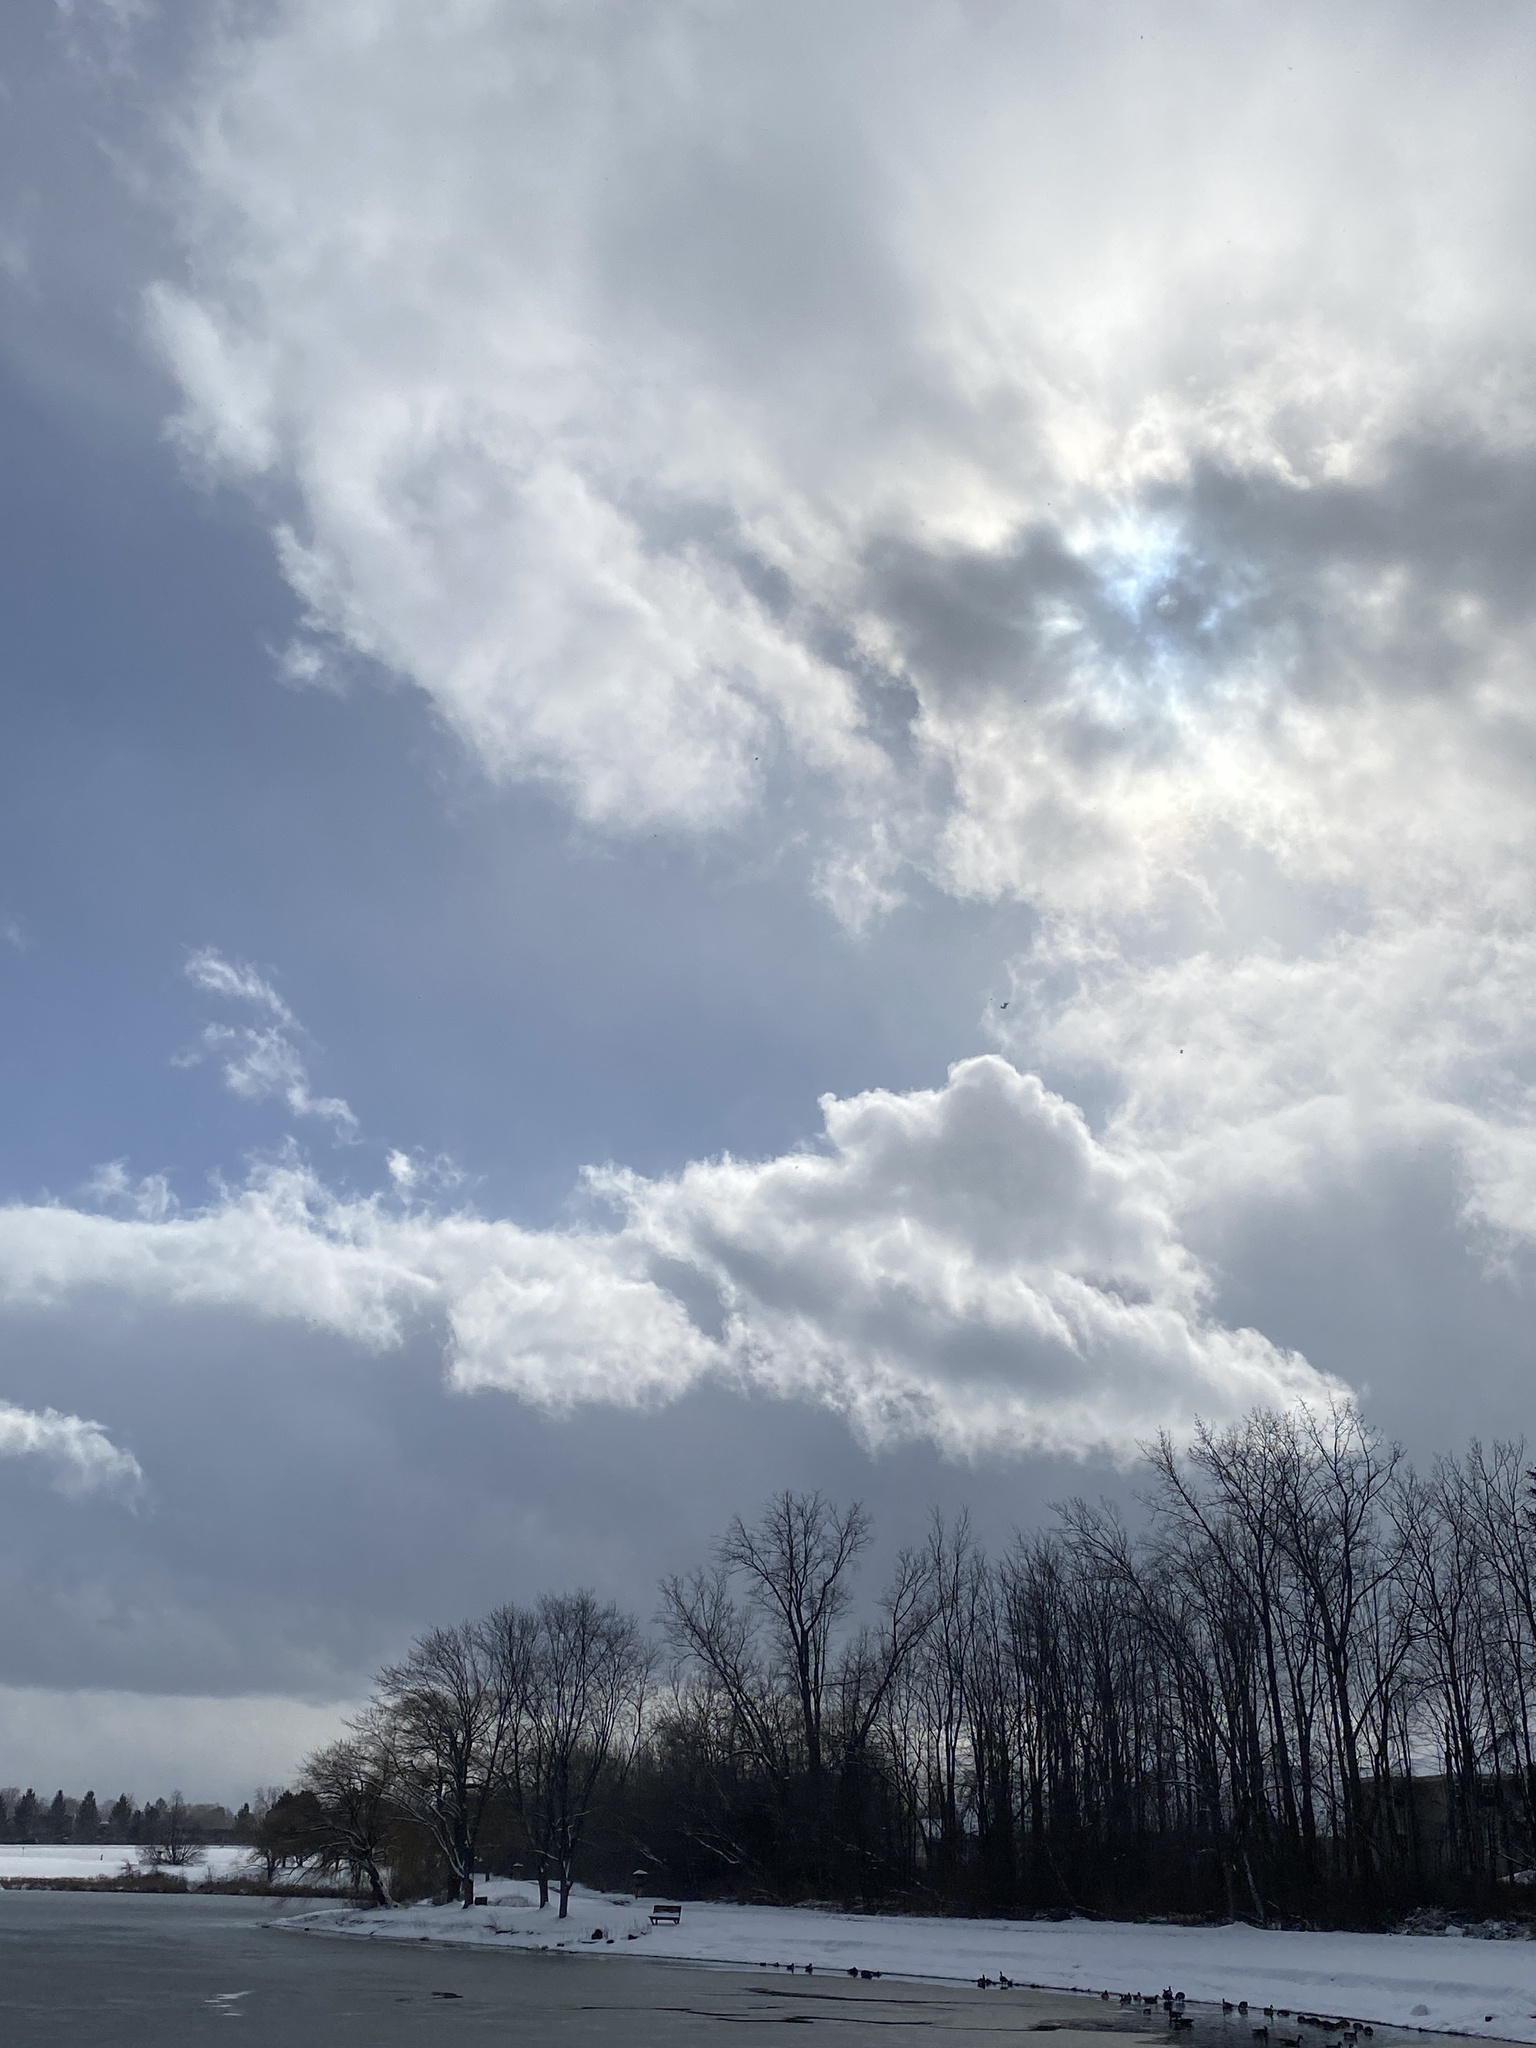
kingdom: Plantae
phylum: Tracheophyta
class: Magnoliopsida
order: Rosales
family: Rhamnaceae
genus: Rhamnus
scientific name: Rhamnus cathartica
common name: Common buckthorn
